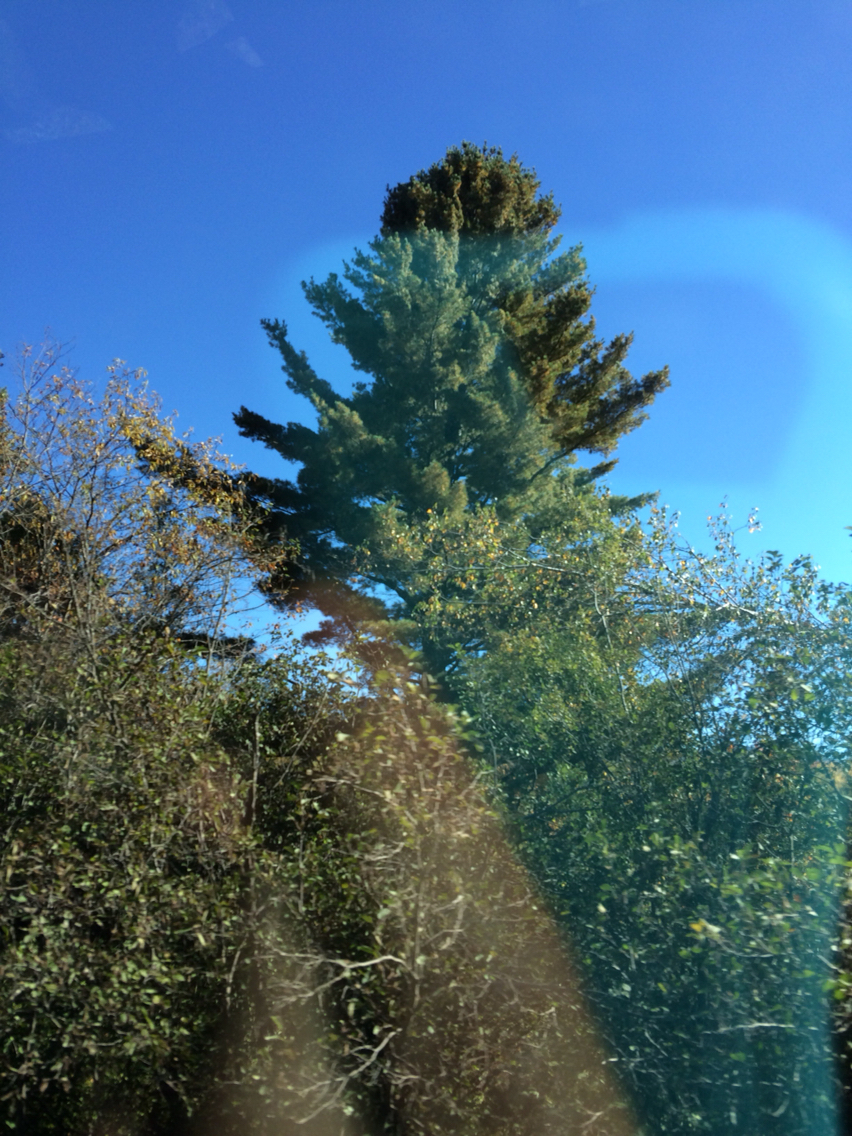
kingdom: Plantae
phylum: Tracheophyta
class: Pinopsida
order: Pinales
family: Pinaceae
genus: Pinus
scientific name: Pinus strobus
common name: Weymouth pine
